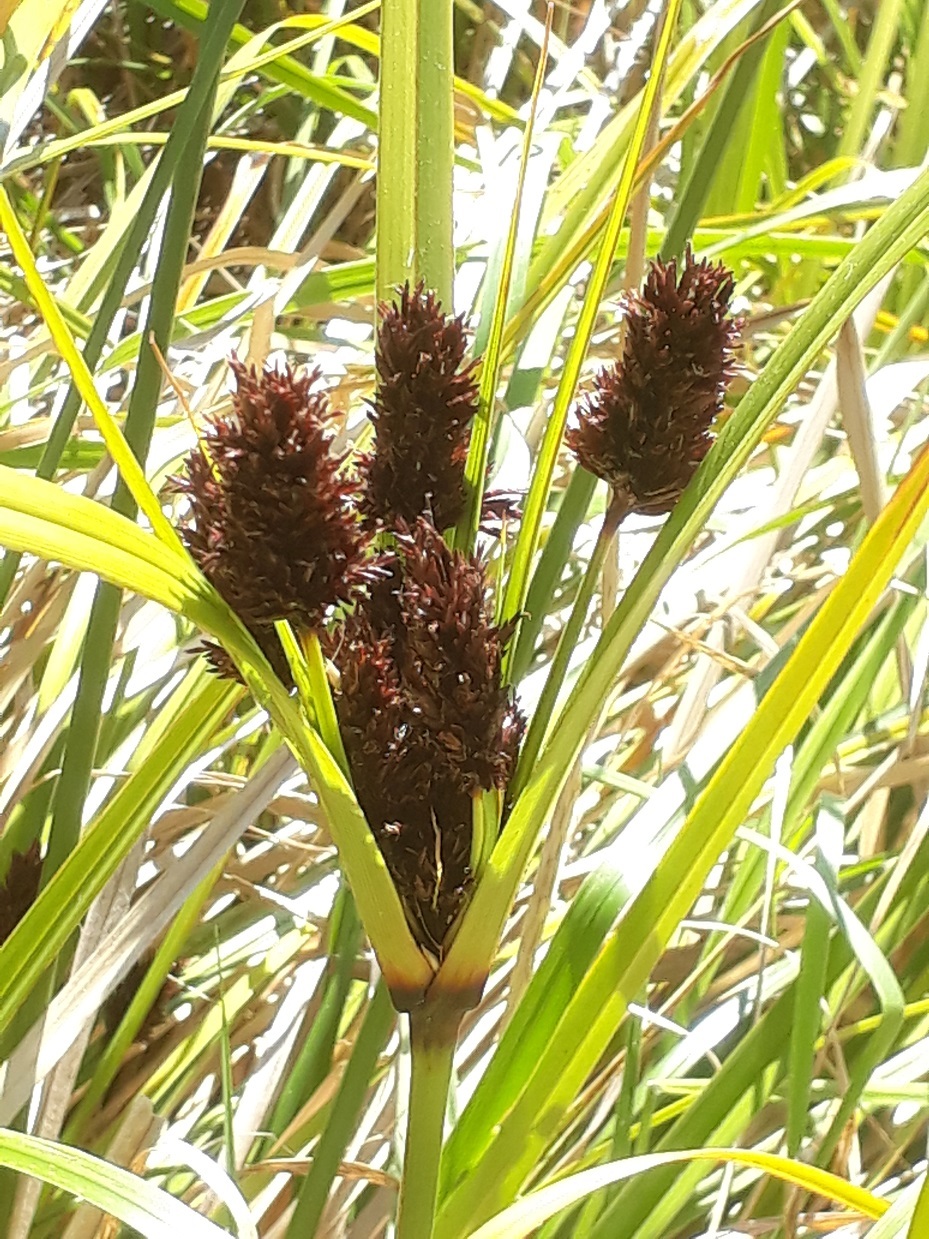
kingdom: Plantae
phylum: Tracheophyta
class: Liliopsida
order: Poales
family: Cyperaceae
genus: Cyperus
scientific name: Cyperus ustulatus
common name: Giant umbrella-sedge
